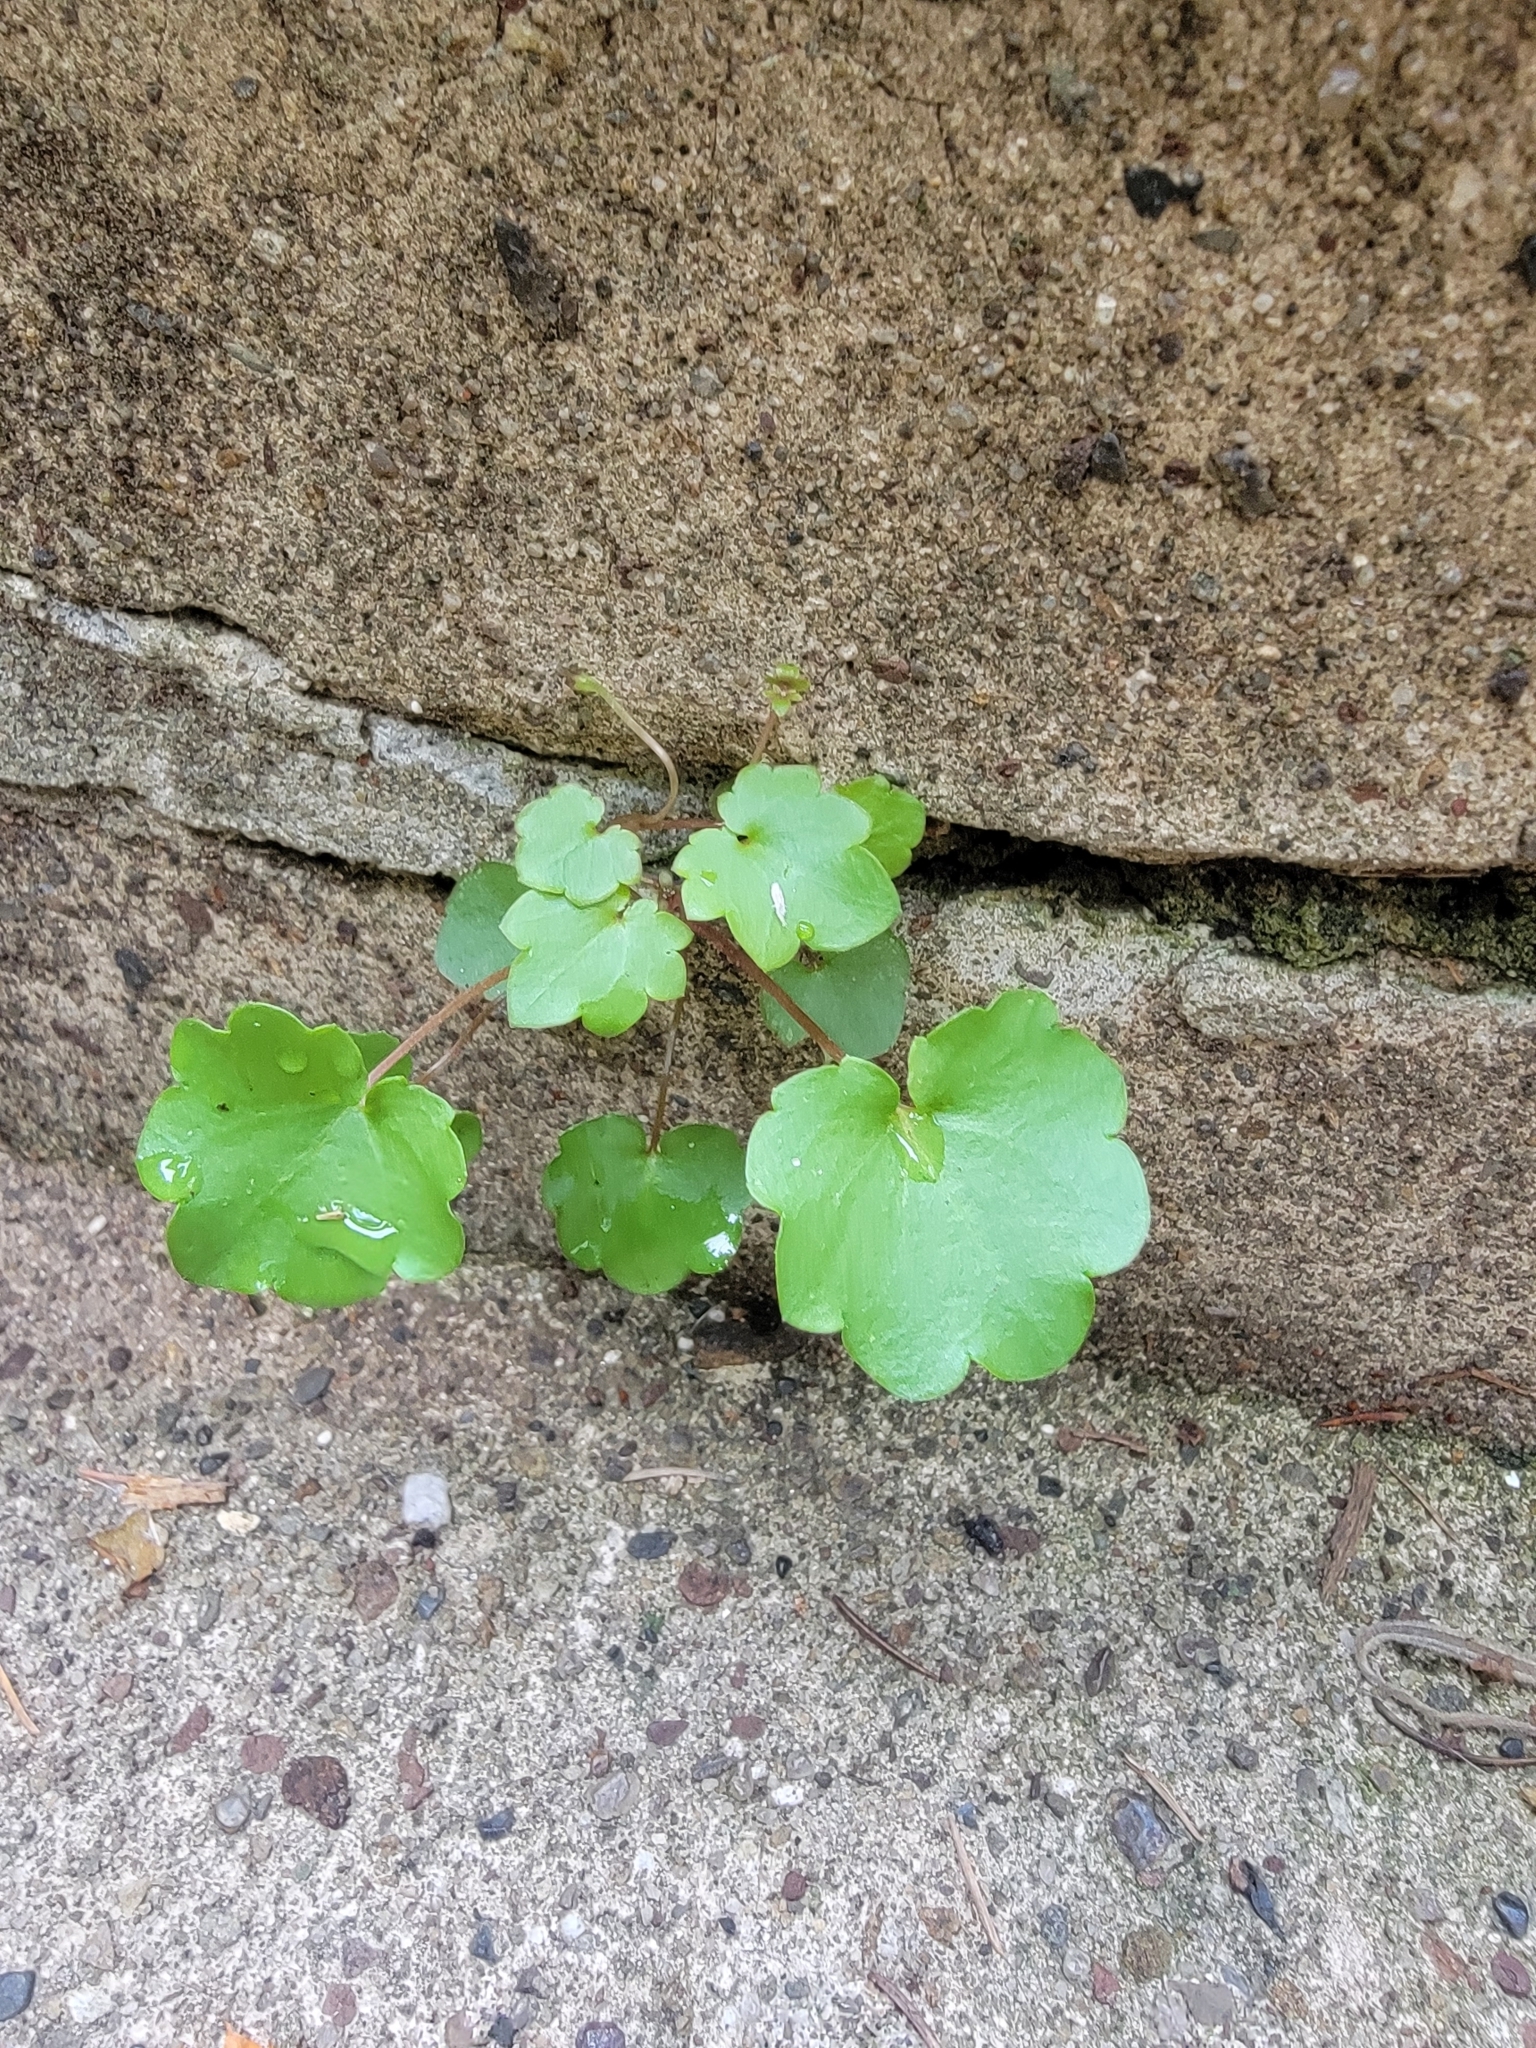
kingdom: Plantae
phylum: Tracheophyta
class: Magnoliopsida
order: Lamiales
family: Plantaginaceae
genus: Cymbalaria
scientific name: Cymbalaria muralis
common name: Ivy-leaved toadflax
